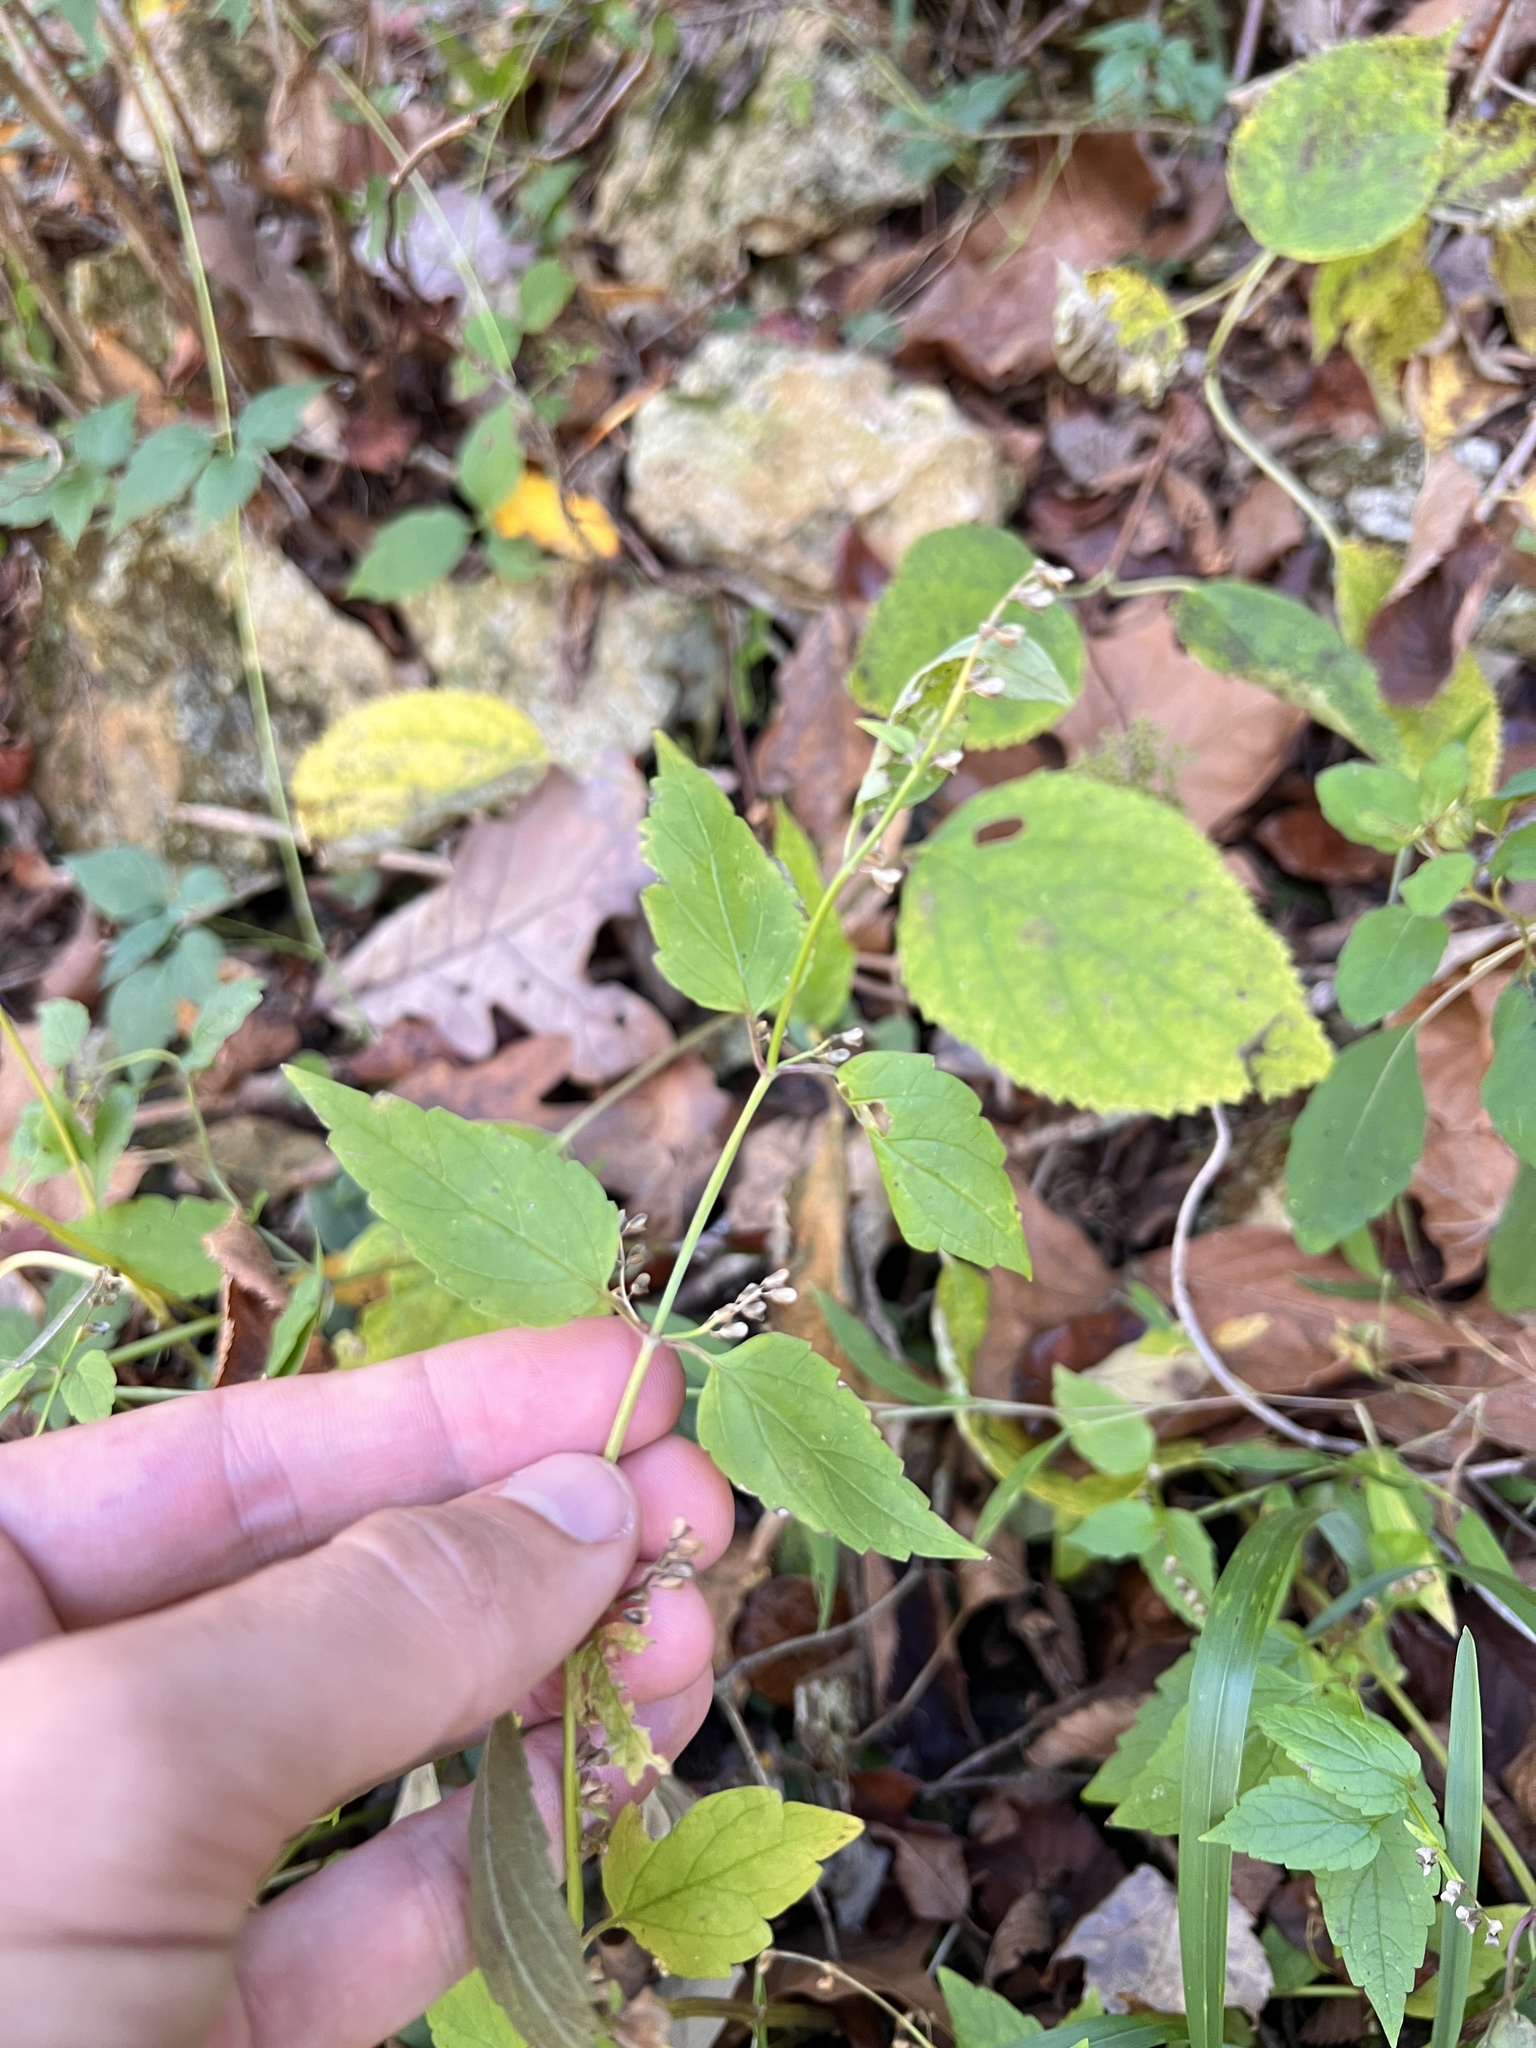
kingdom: Plantae
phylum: Tracheophyta
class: Magnoliopsida
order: Lamiales
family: Lamiaceae
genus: Scutellaria
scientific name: Scutellaria lateriflora
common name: Blue skullcap
